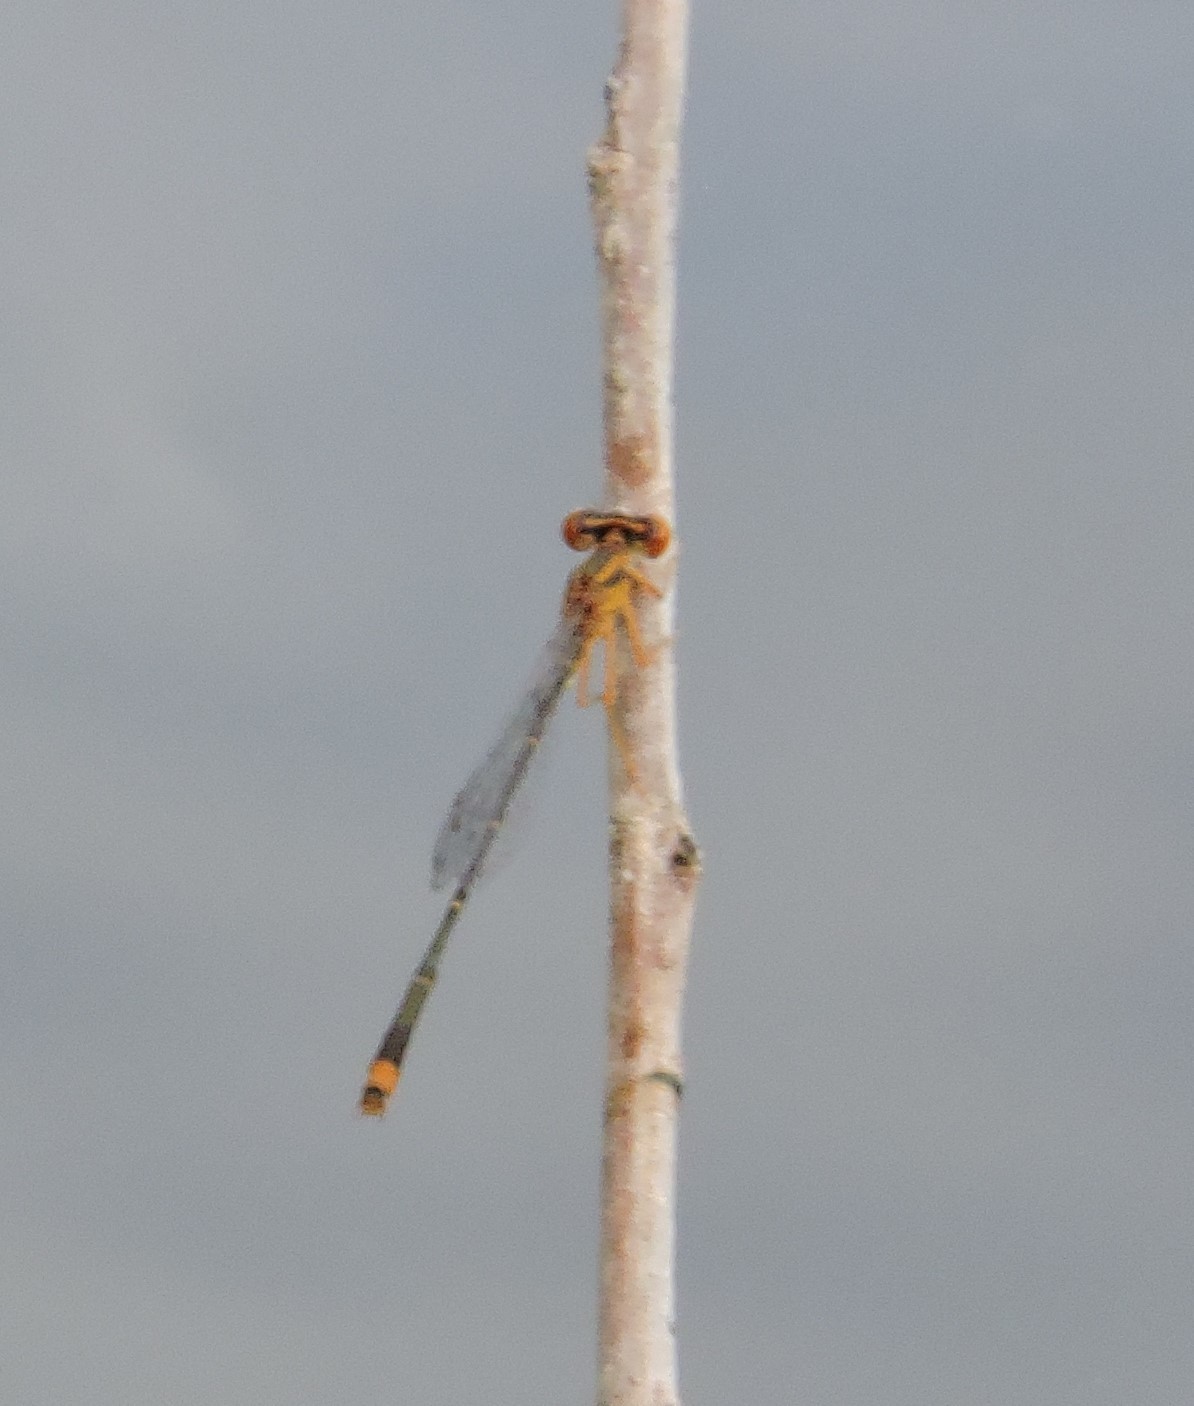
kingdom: Animalia
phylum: Arthropoda
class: Insecta
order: Odonata
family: Coenagrionidae
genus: Enallagma
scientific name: Enallagma signatum
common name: Orange bluet
